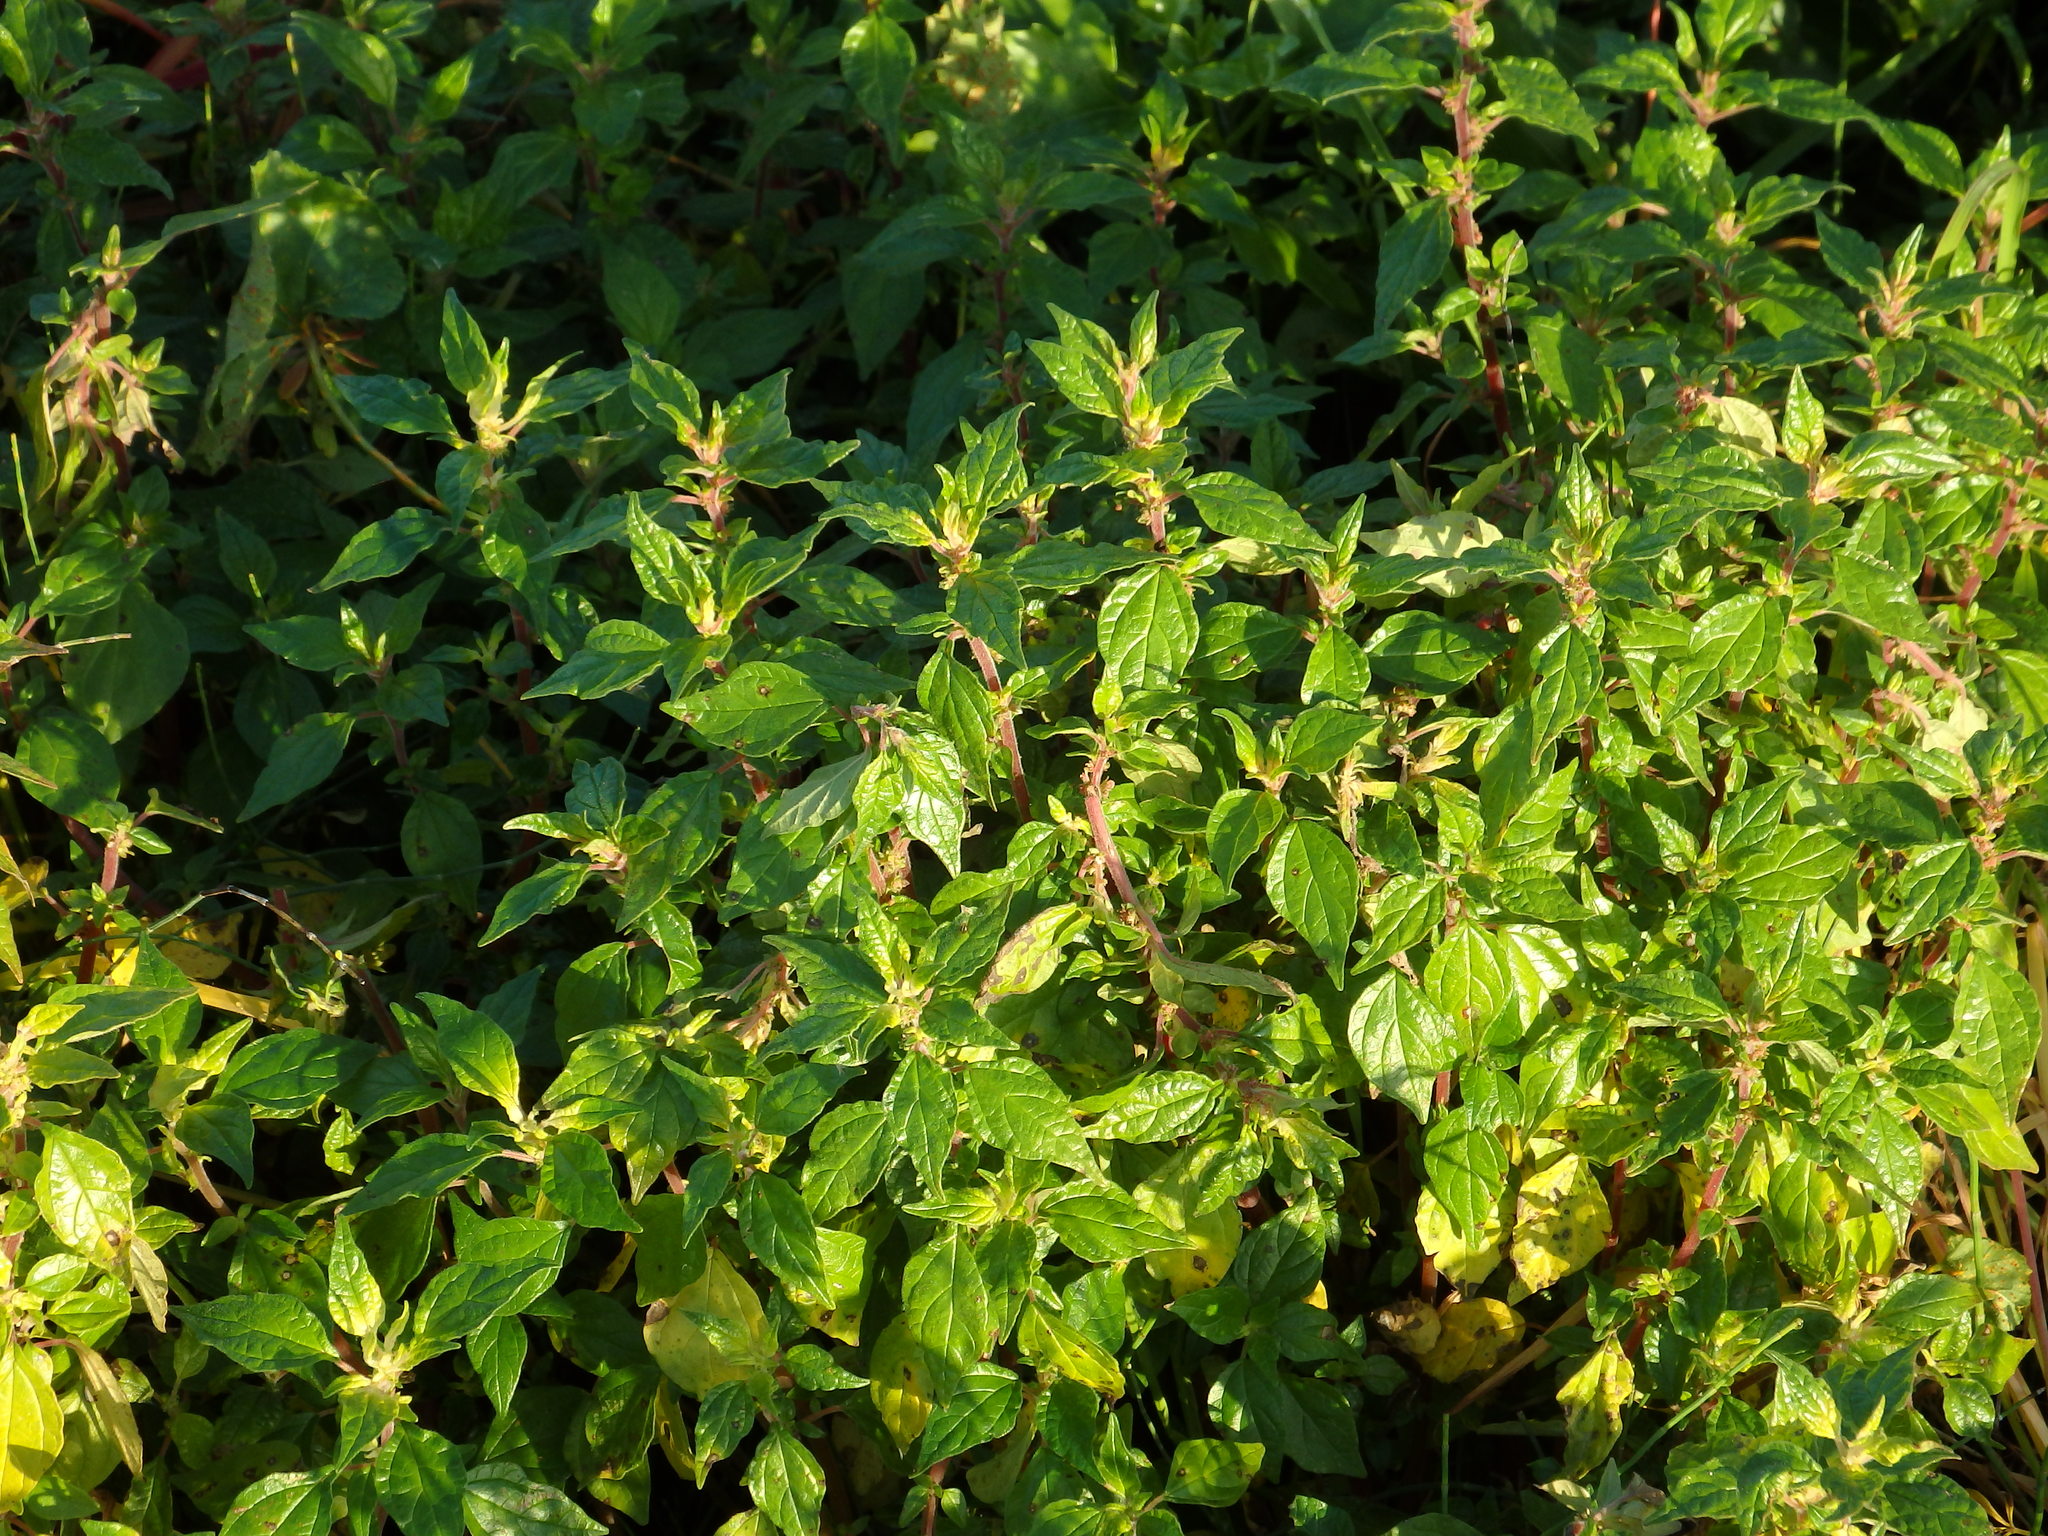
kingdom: Plantae
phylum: Tracheophyta
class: Magnoliopsida
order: Rosales
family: Urticaceae
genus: Parietaria
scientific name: Parietaria judaica
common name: Pellitory-of-the-wall
